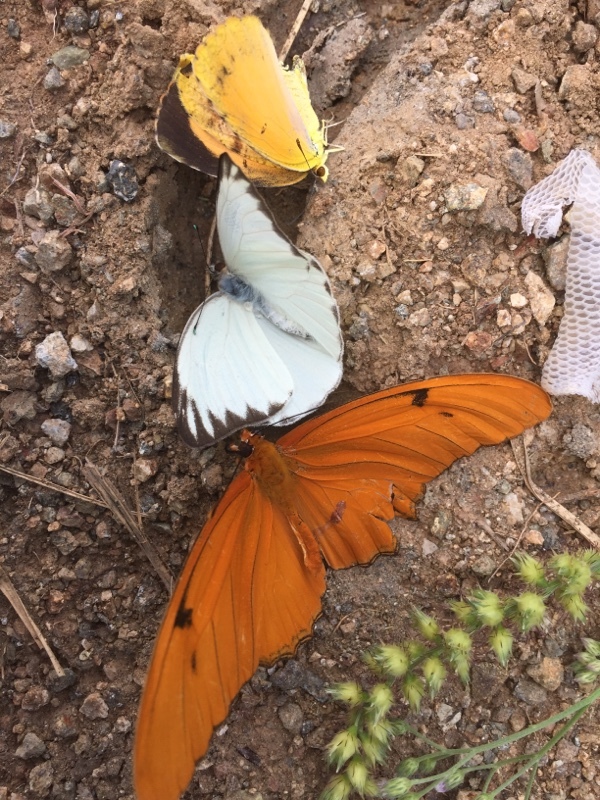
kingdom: Animalia
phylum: Arthropoda
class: Insecta
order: Lepidoptera
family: Nymphalidae
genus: Dryas
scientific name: Dryas iulia
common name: Flambeau
